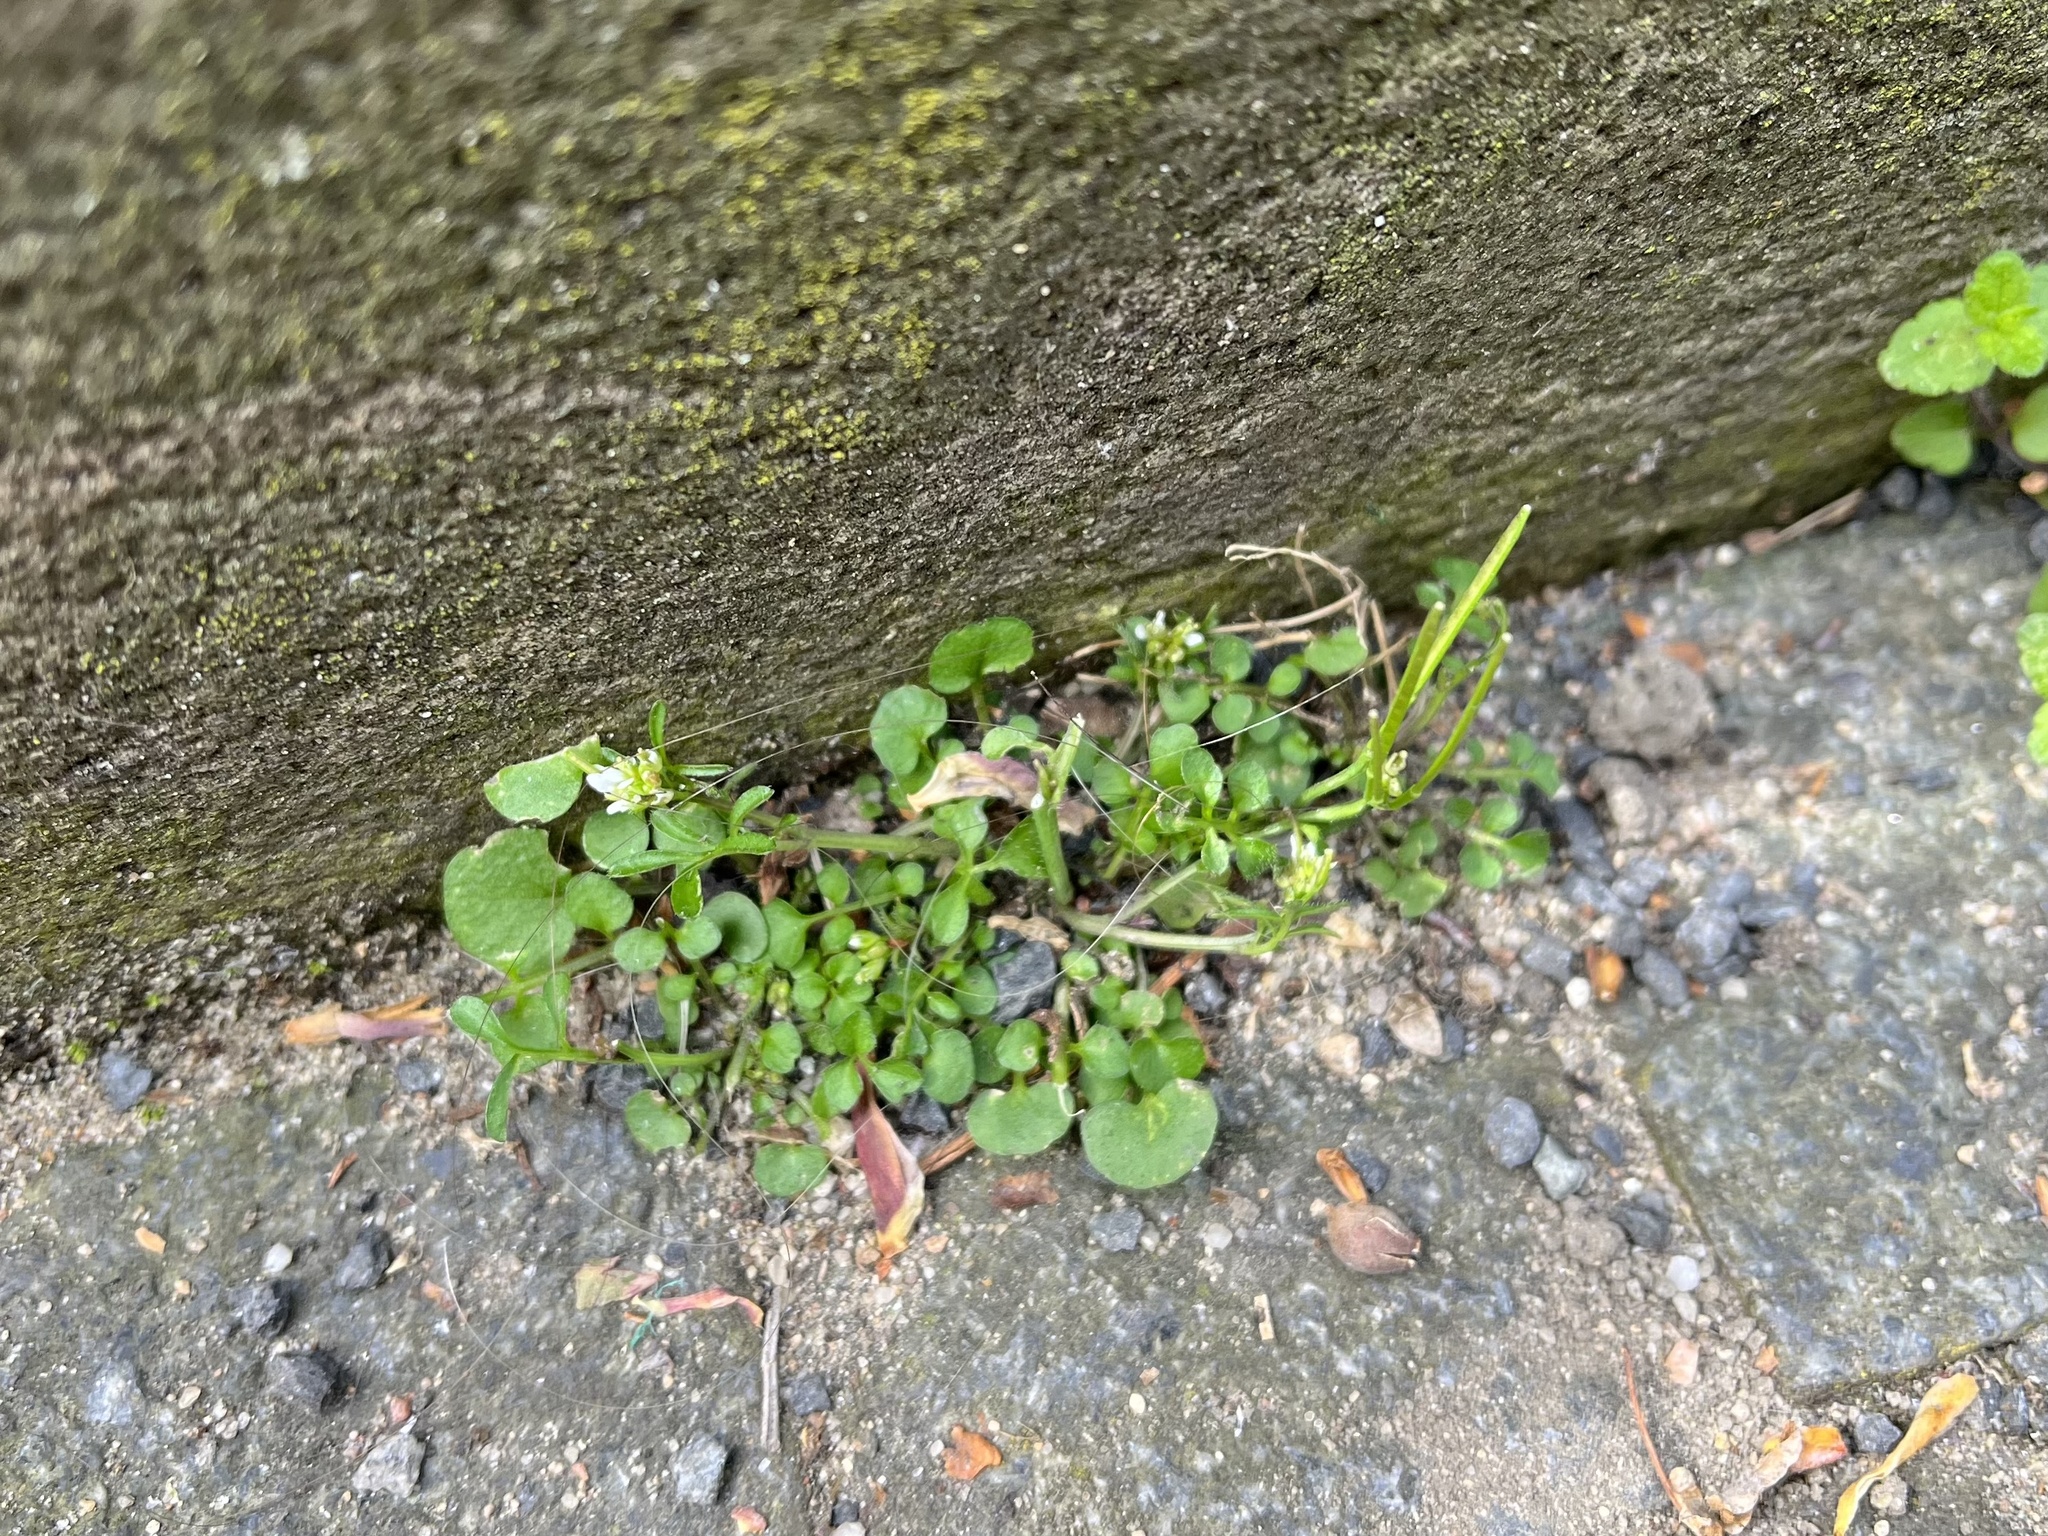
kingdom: Plantae
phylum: Tracheophyta
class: Magnoliopsida
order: Brassicales
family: Brassicaceae
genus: Cardamine
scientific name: Cardamine hirsuta
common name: Hairy bittercress
